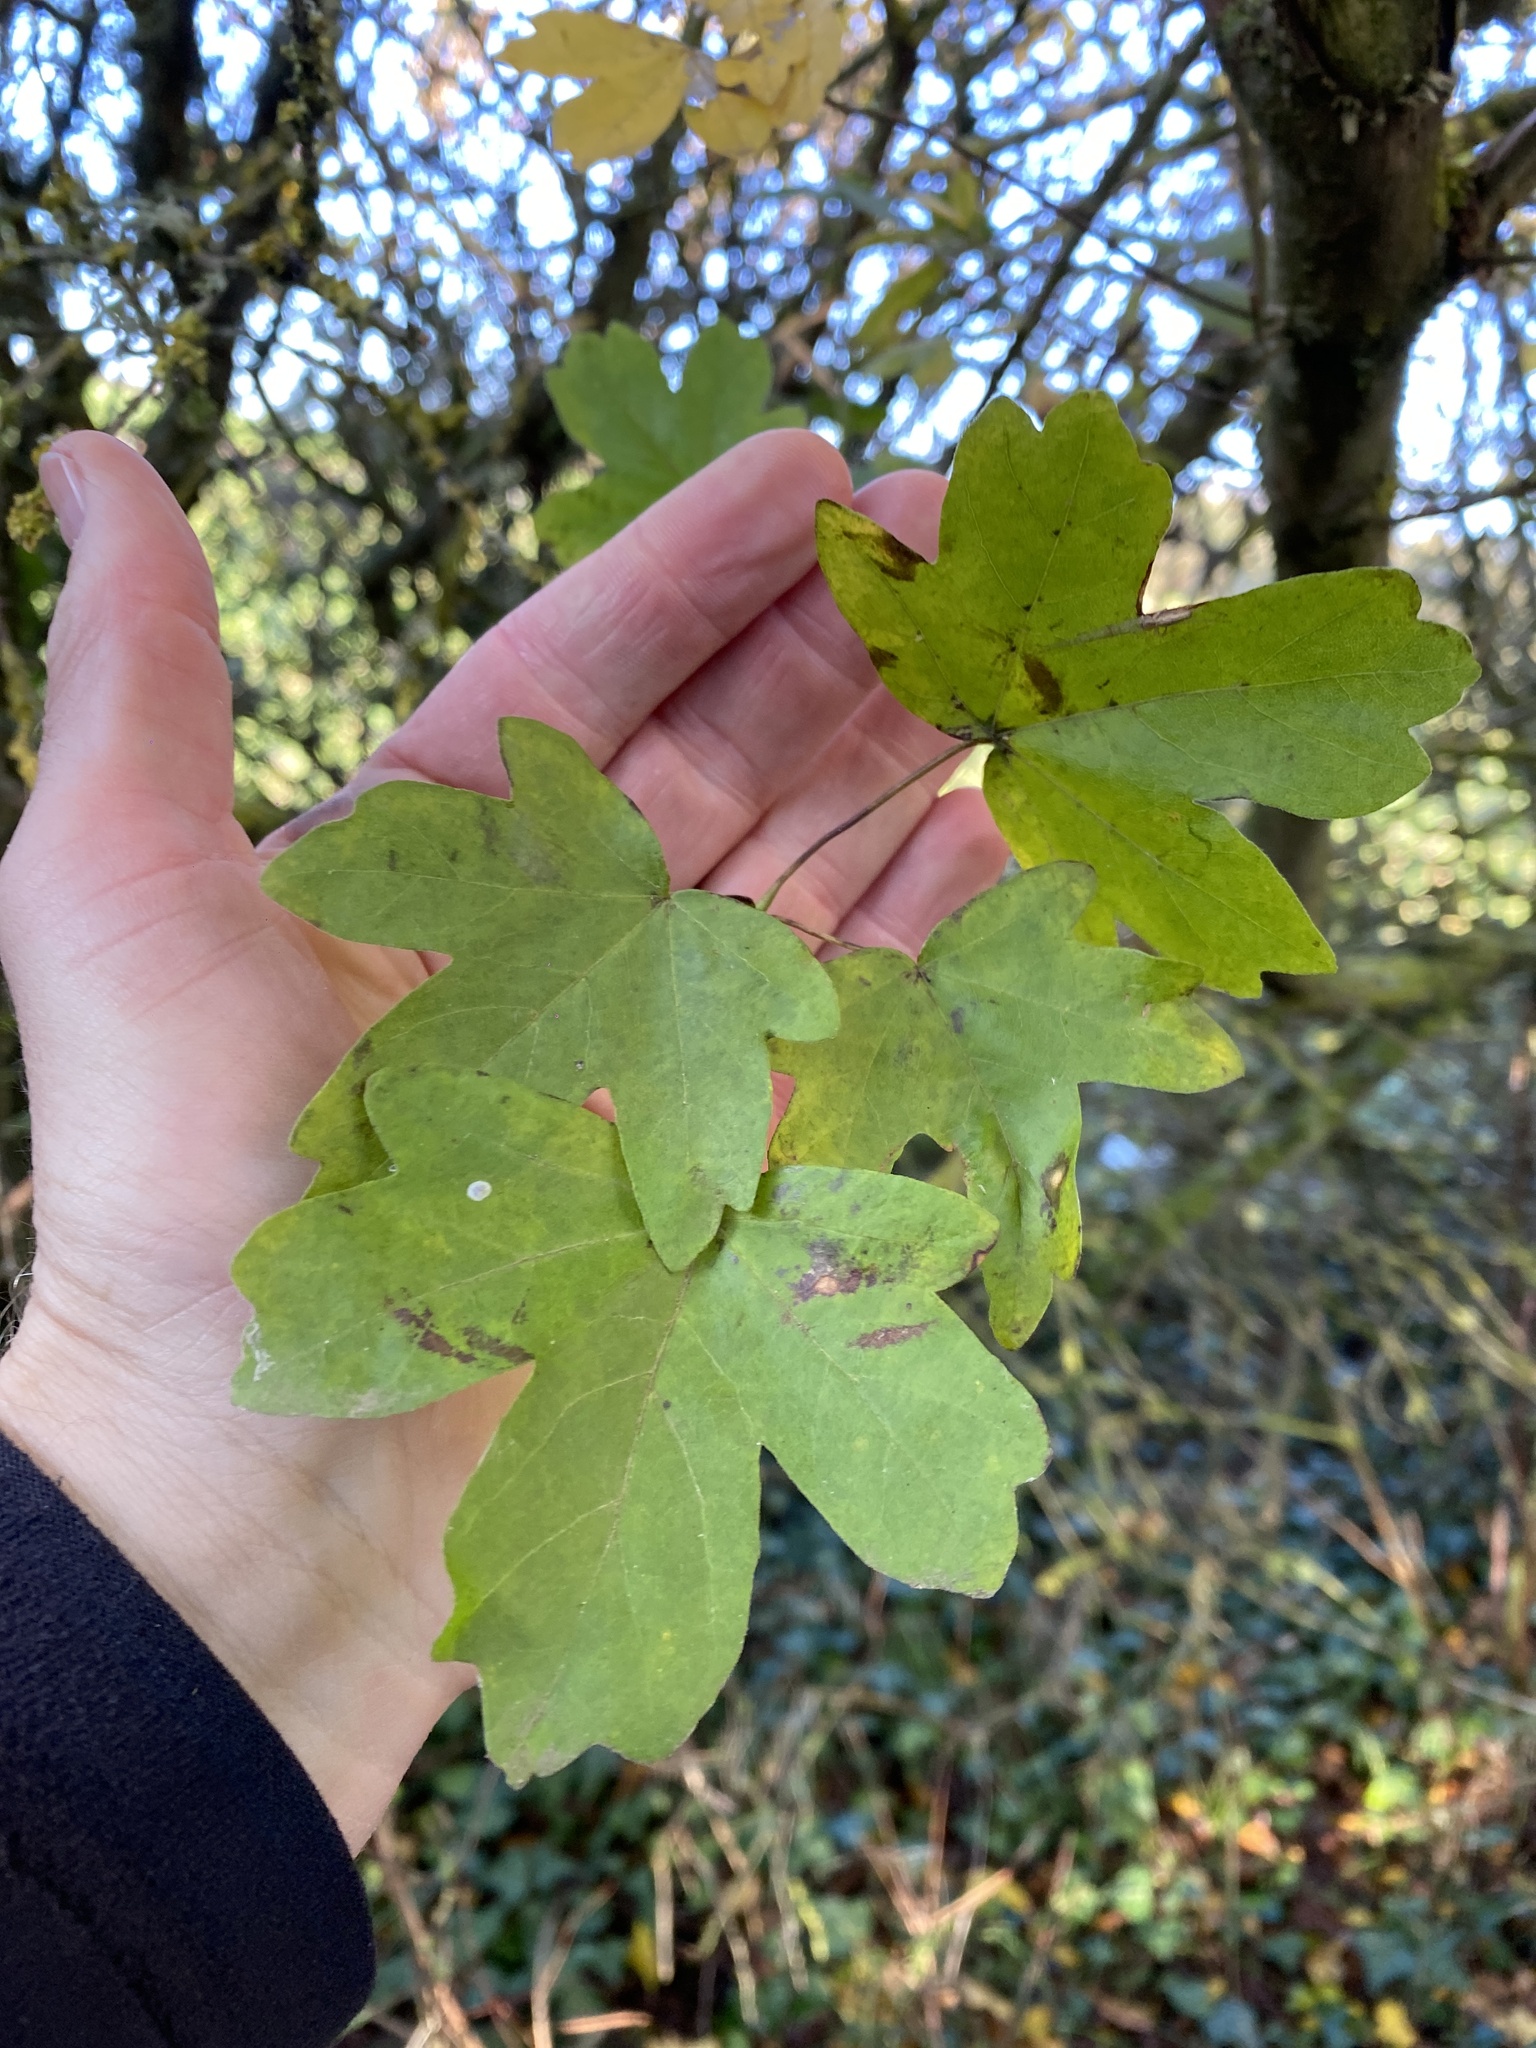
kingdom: Plantae
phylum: Tracheophyta
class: Magnoliopsida
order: Sapindales
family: Sapindaceae
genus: Acer
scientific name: Acer campestre
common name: Field maple
